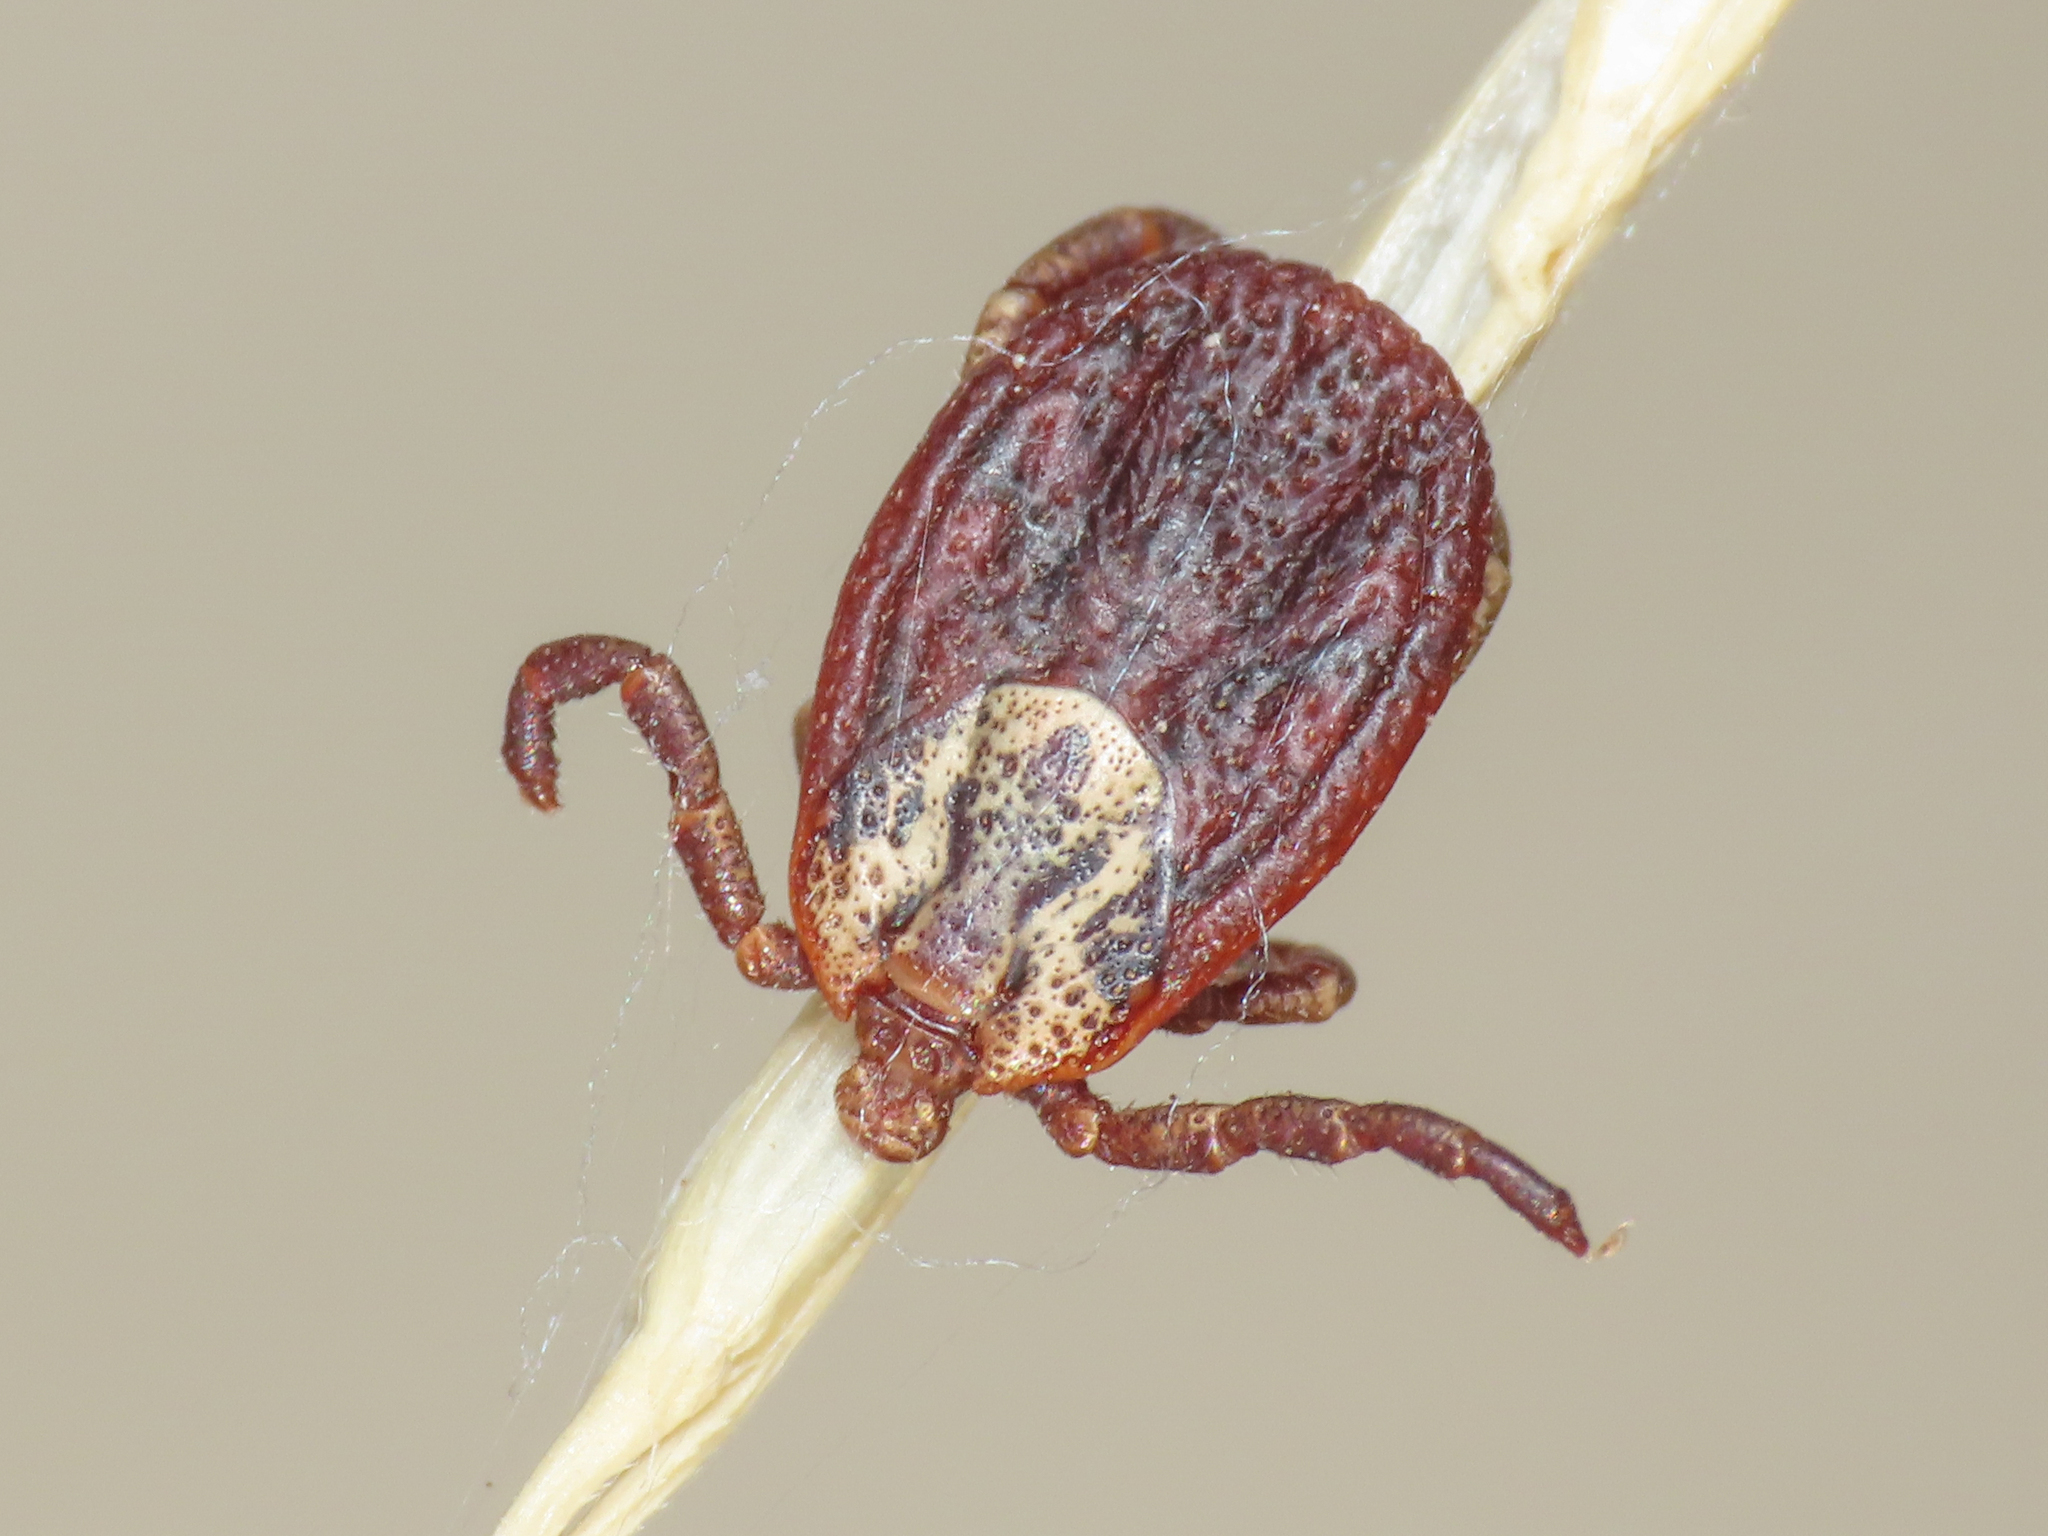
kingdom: Animalia
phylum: Arthropoda
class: Arachnida
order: Ixodida
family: Ixodidae
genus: Dermacentor
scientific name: Dermacentor marginatus
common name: Ornate sheep tick
